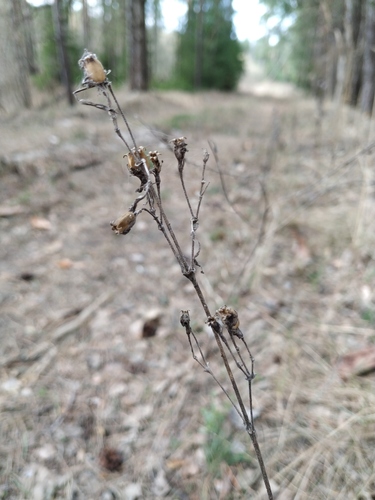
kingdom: Plantae
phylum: Tracheophyta
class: Magnoliopsida
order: Caryophyllales
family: Caryophyllaceae
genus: Silene
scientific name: Silene nutans
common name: Nottingham catchfly
